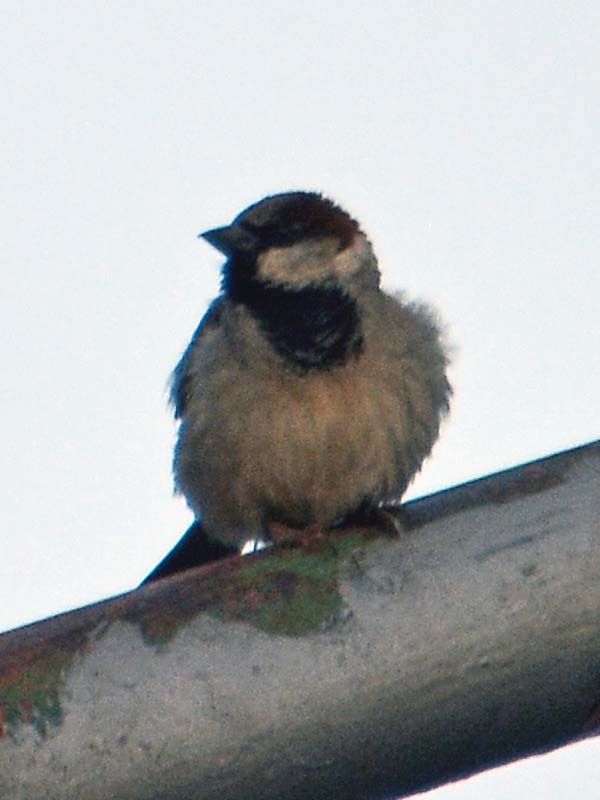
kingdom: Animalia
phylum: Chordata
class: Aves
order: Passeriformes
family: Passeridae
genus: Passer
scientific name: Passer domesticus
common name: House sparrow
